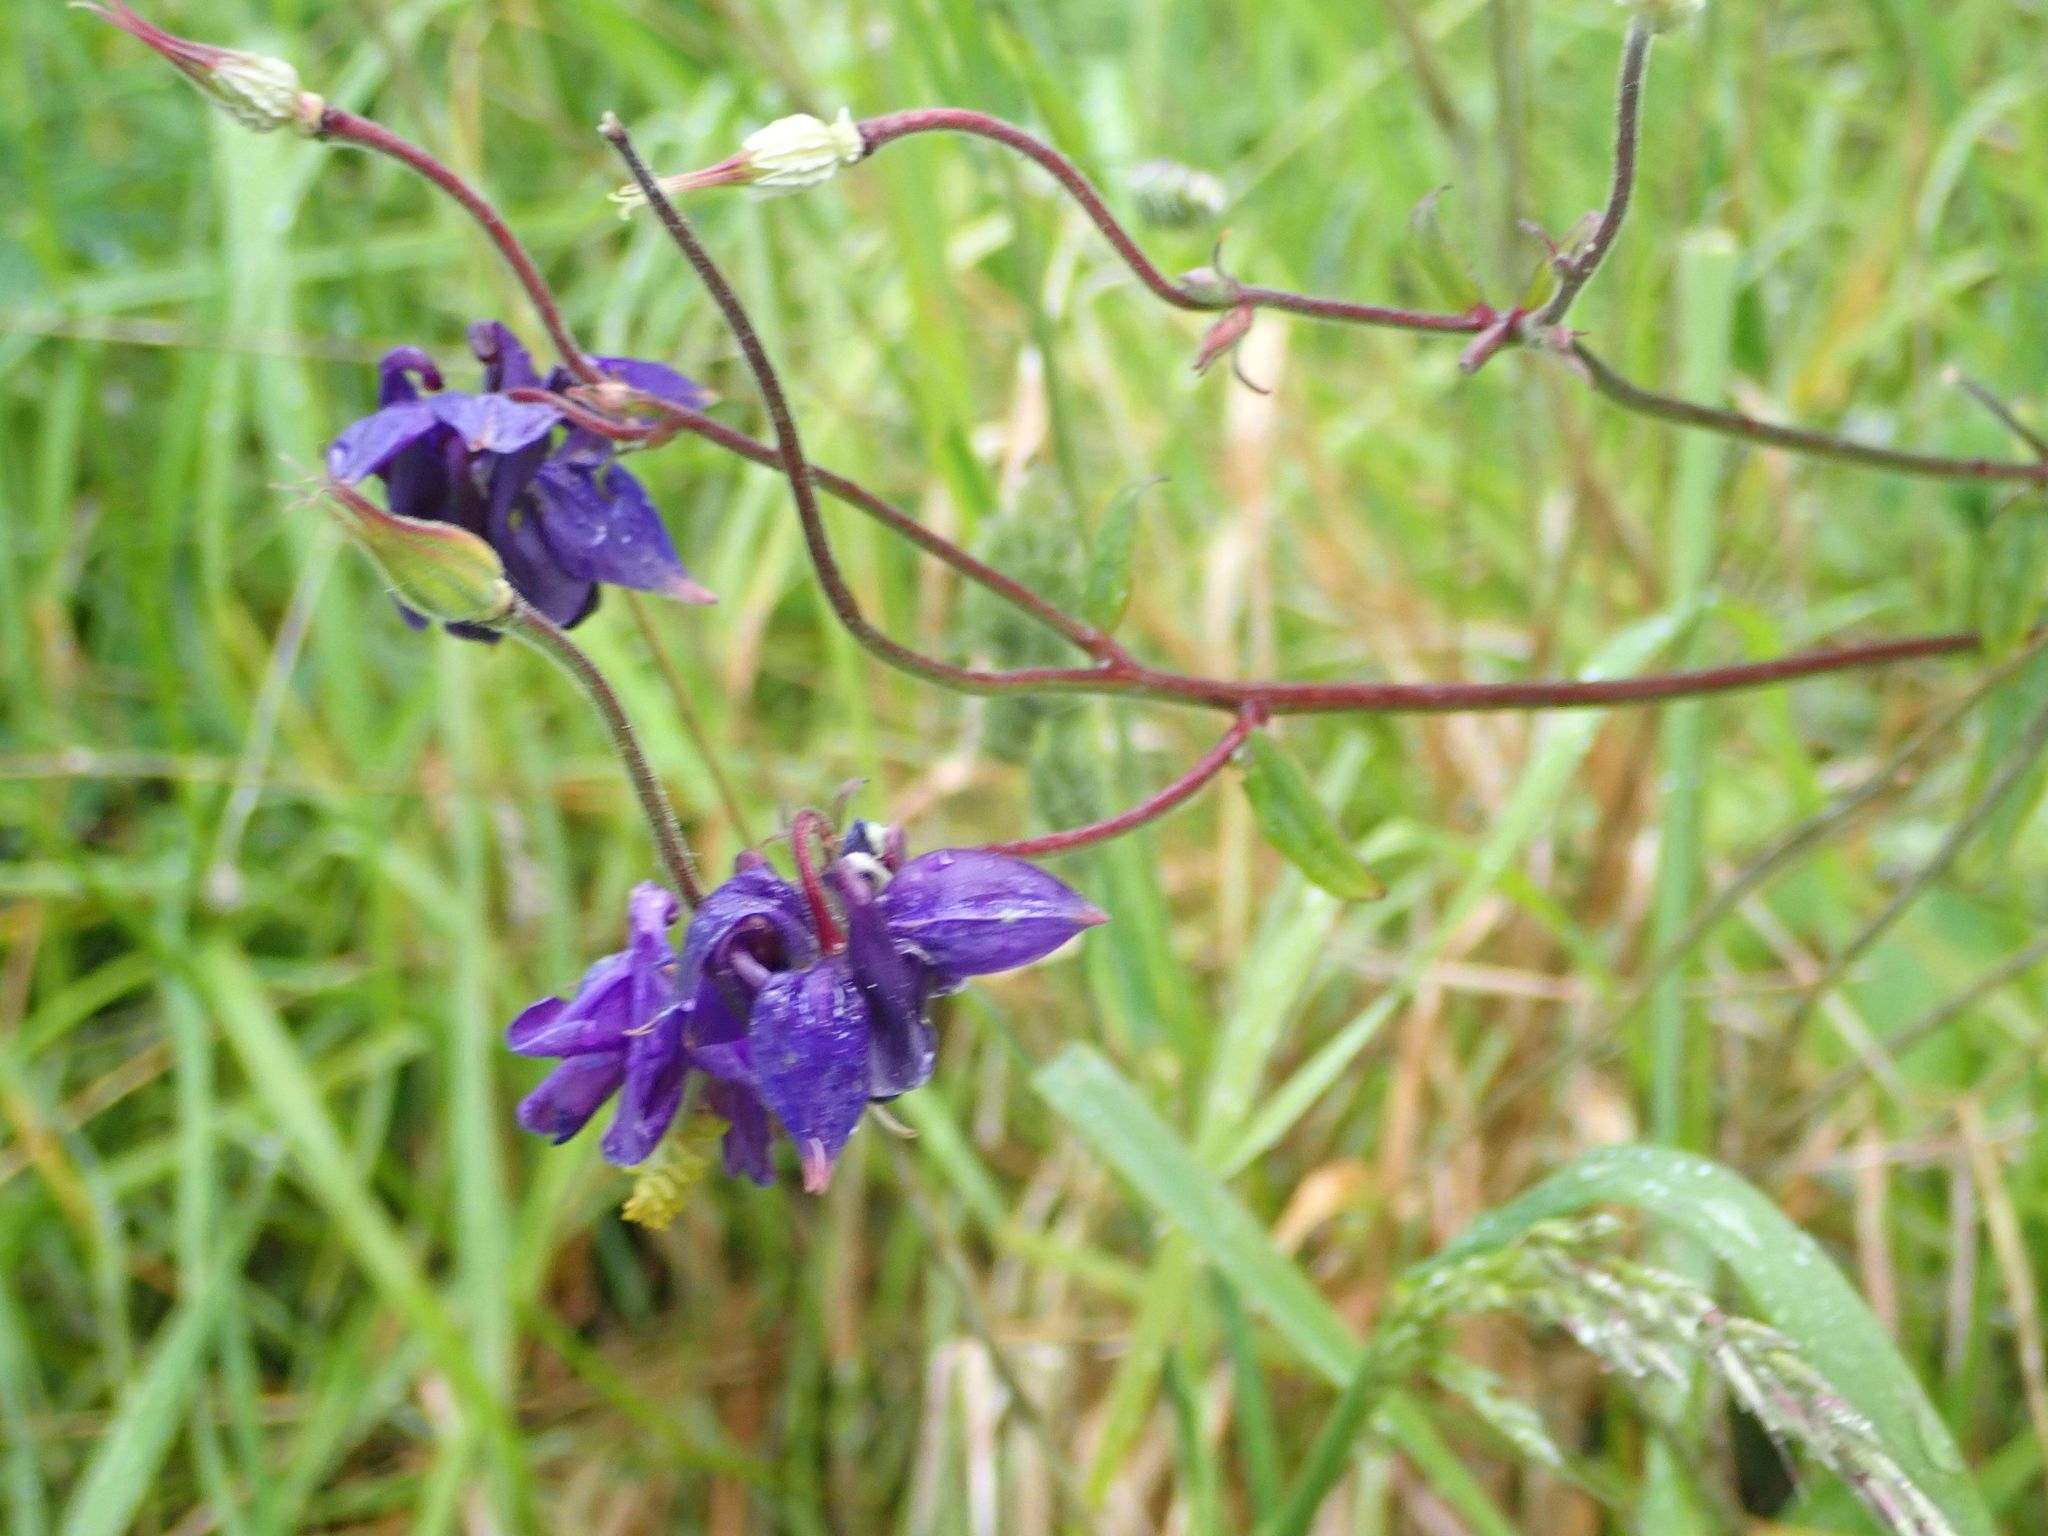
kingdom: Plantae
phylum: Tracheophyta
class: Magnoliopsida
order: Ranunculales
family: Ranunculaceae
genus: Aquilegia
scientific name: Aquilegia vulgaris
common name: Columbine
